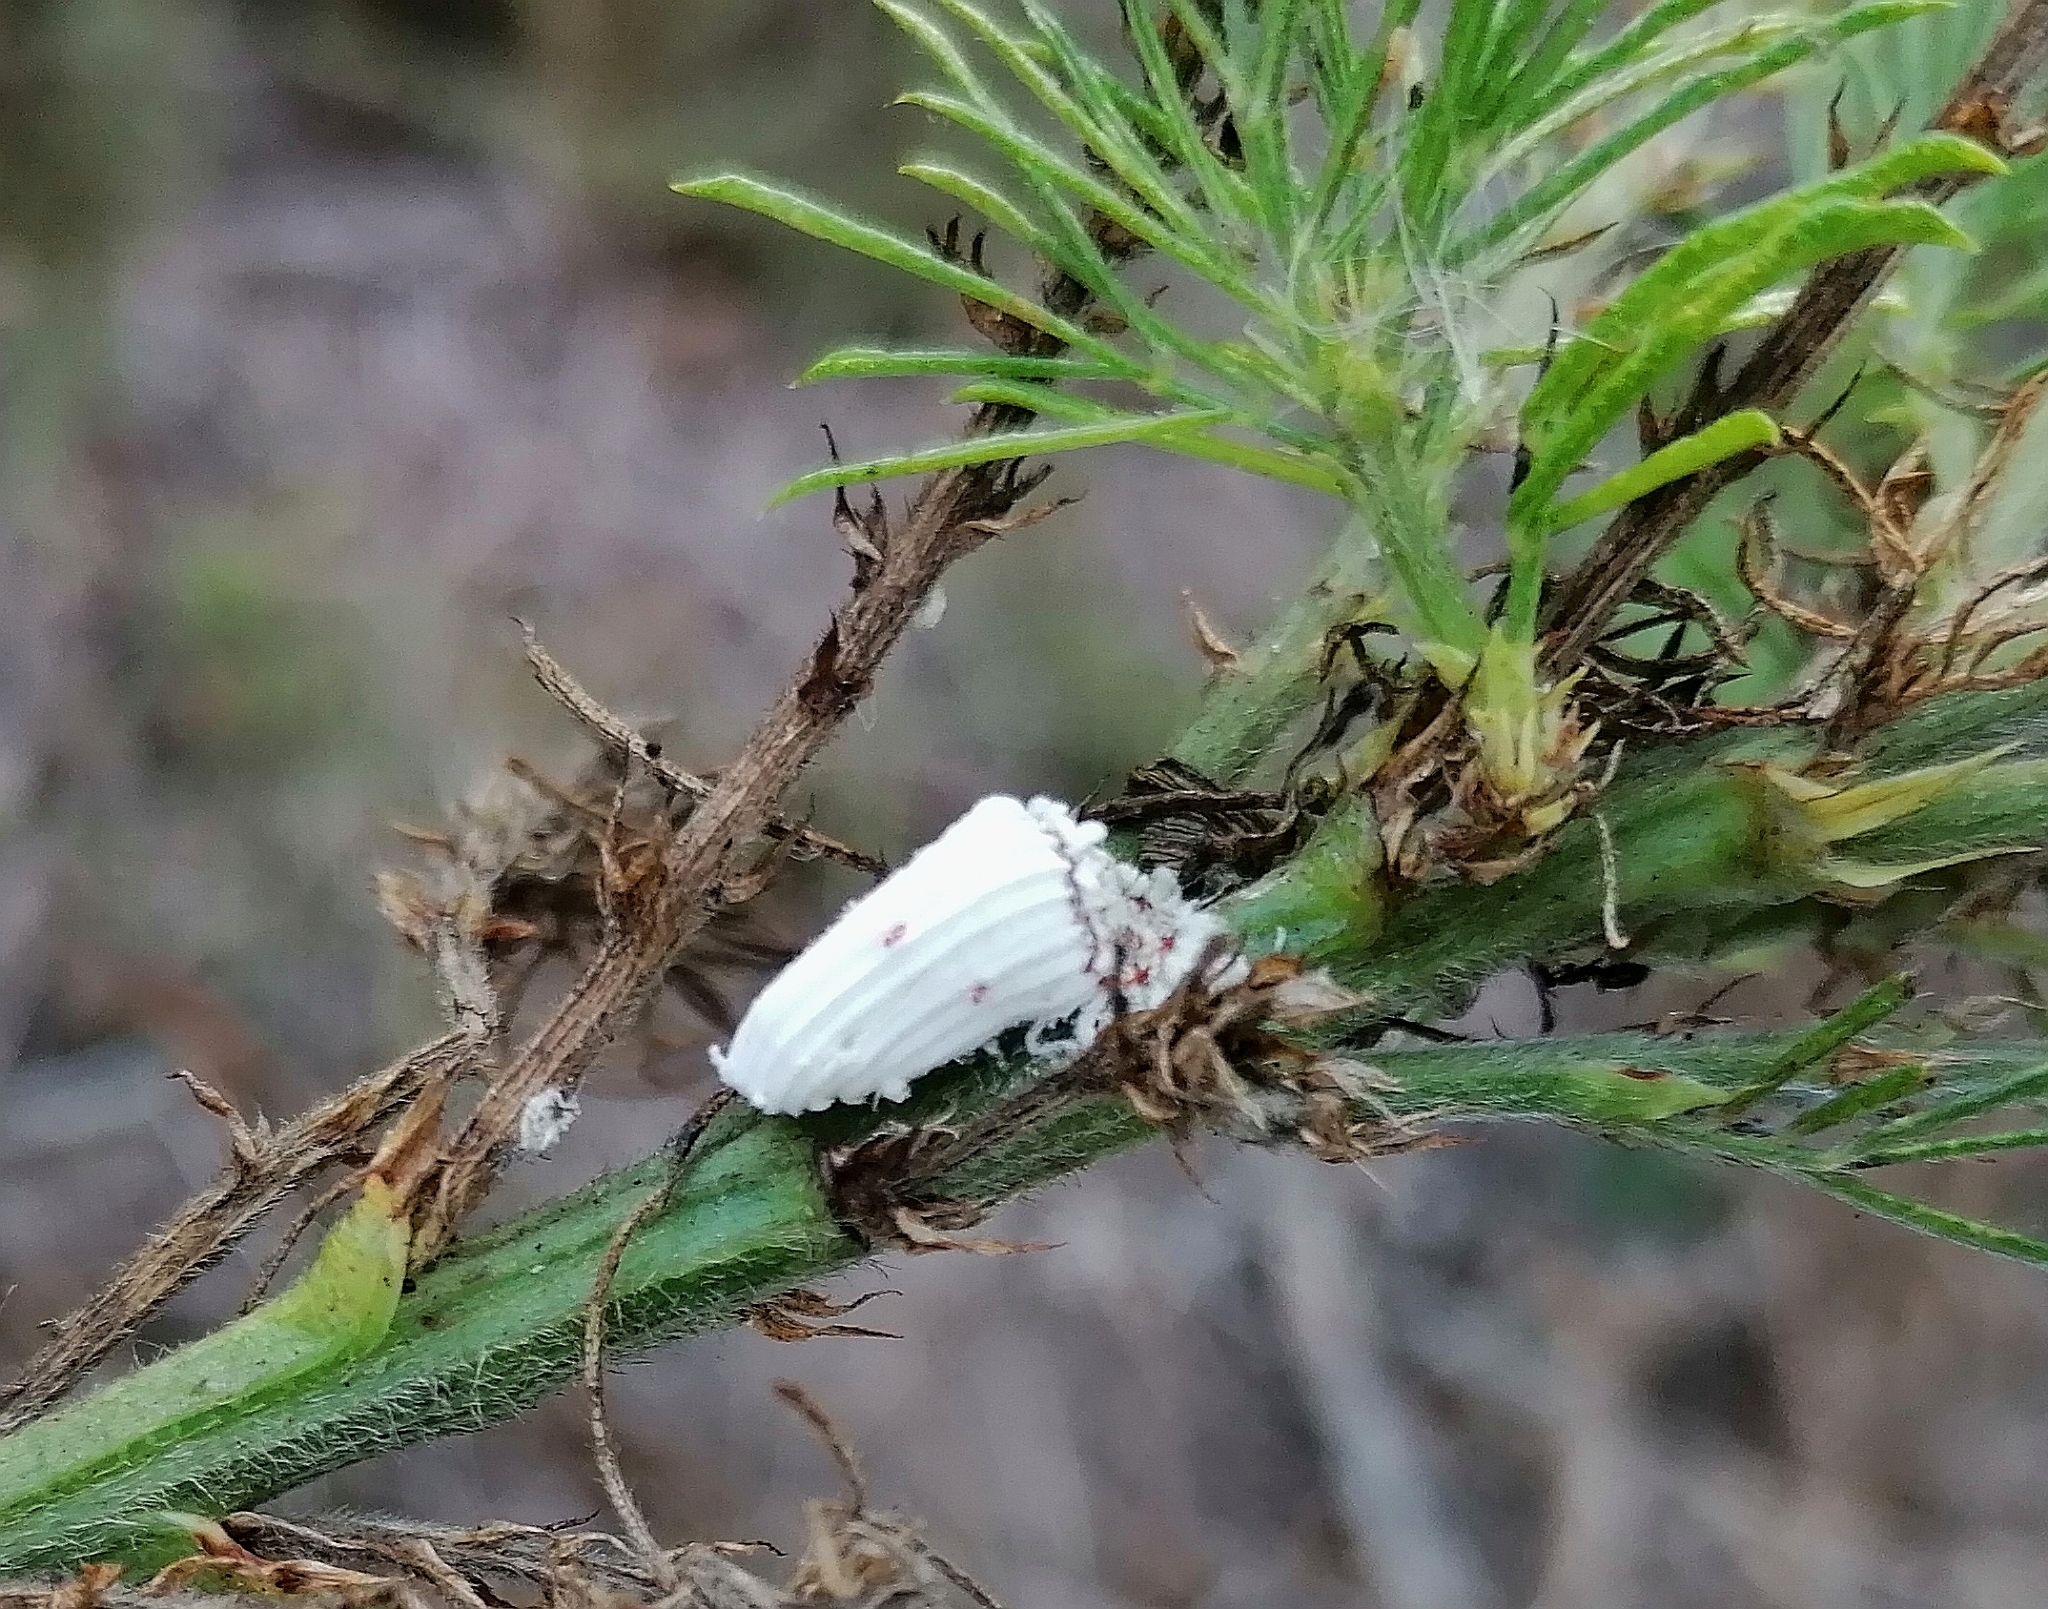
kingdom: Animalia
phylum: Arthropoda
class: Insecta
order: Hemiptera
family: Margarodidae
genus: Icerya
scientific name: Icerya purchasi
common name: Cottony cushion scale
